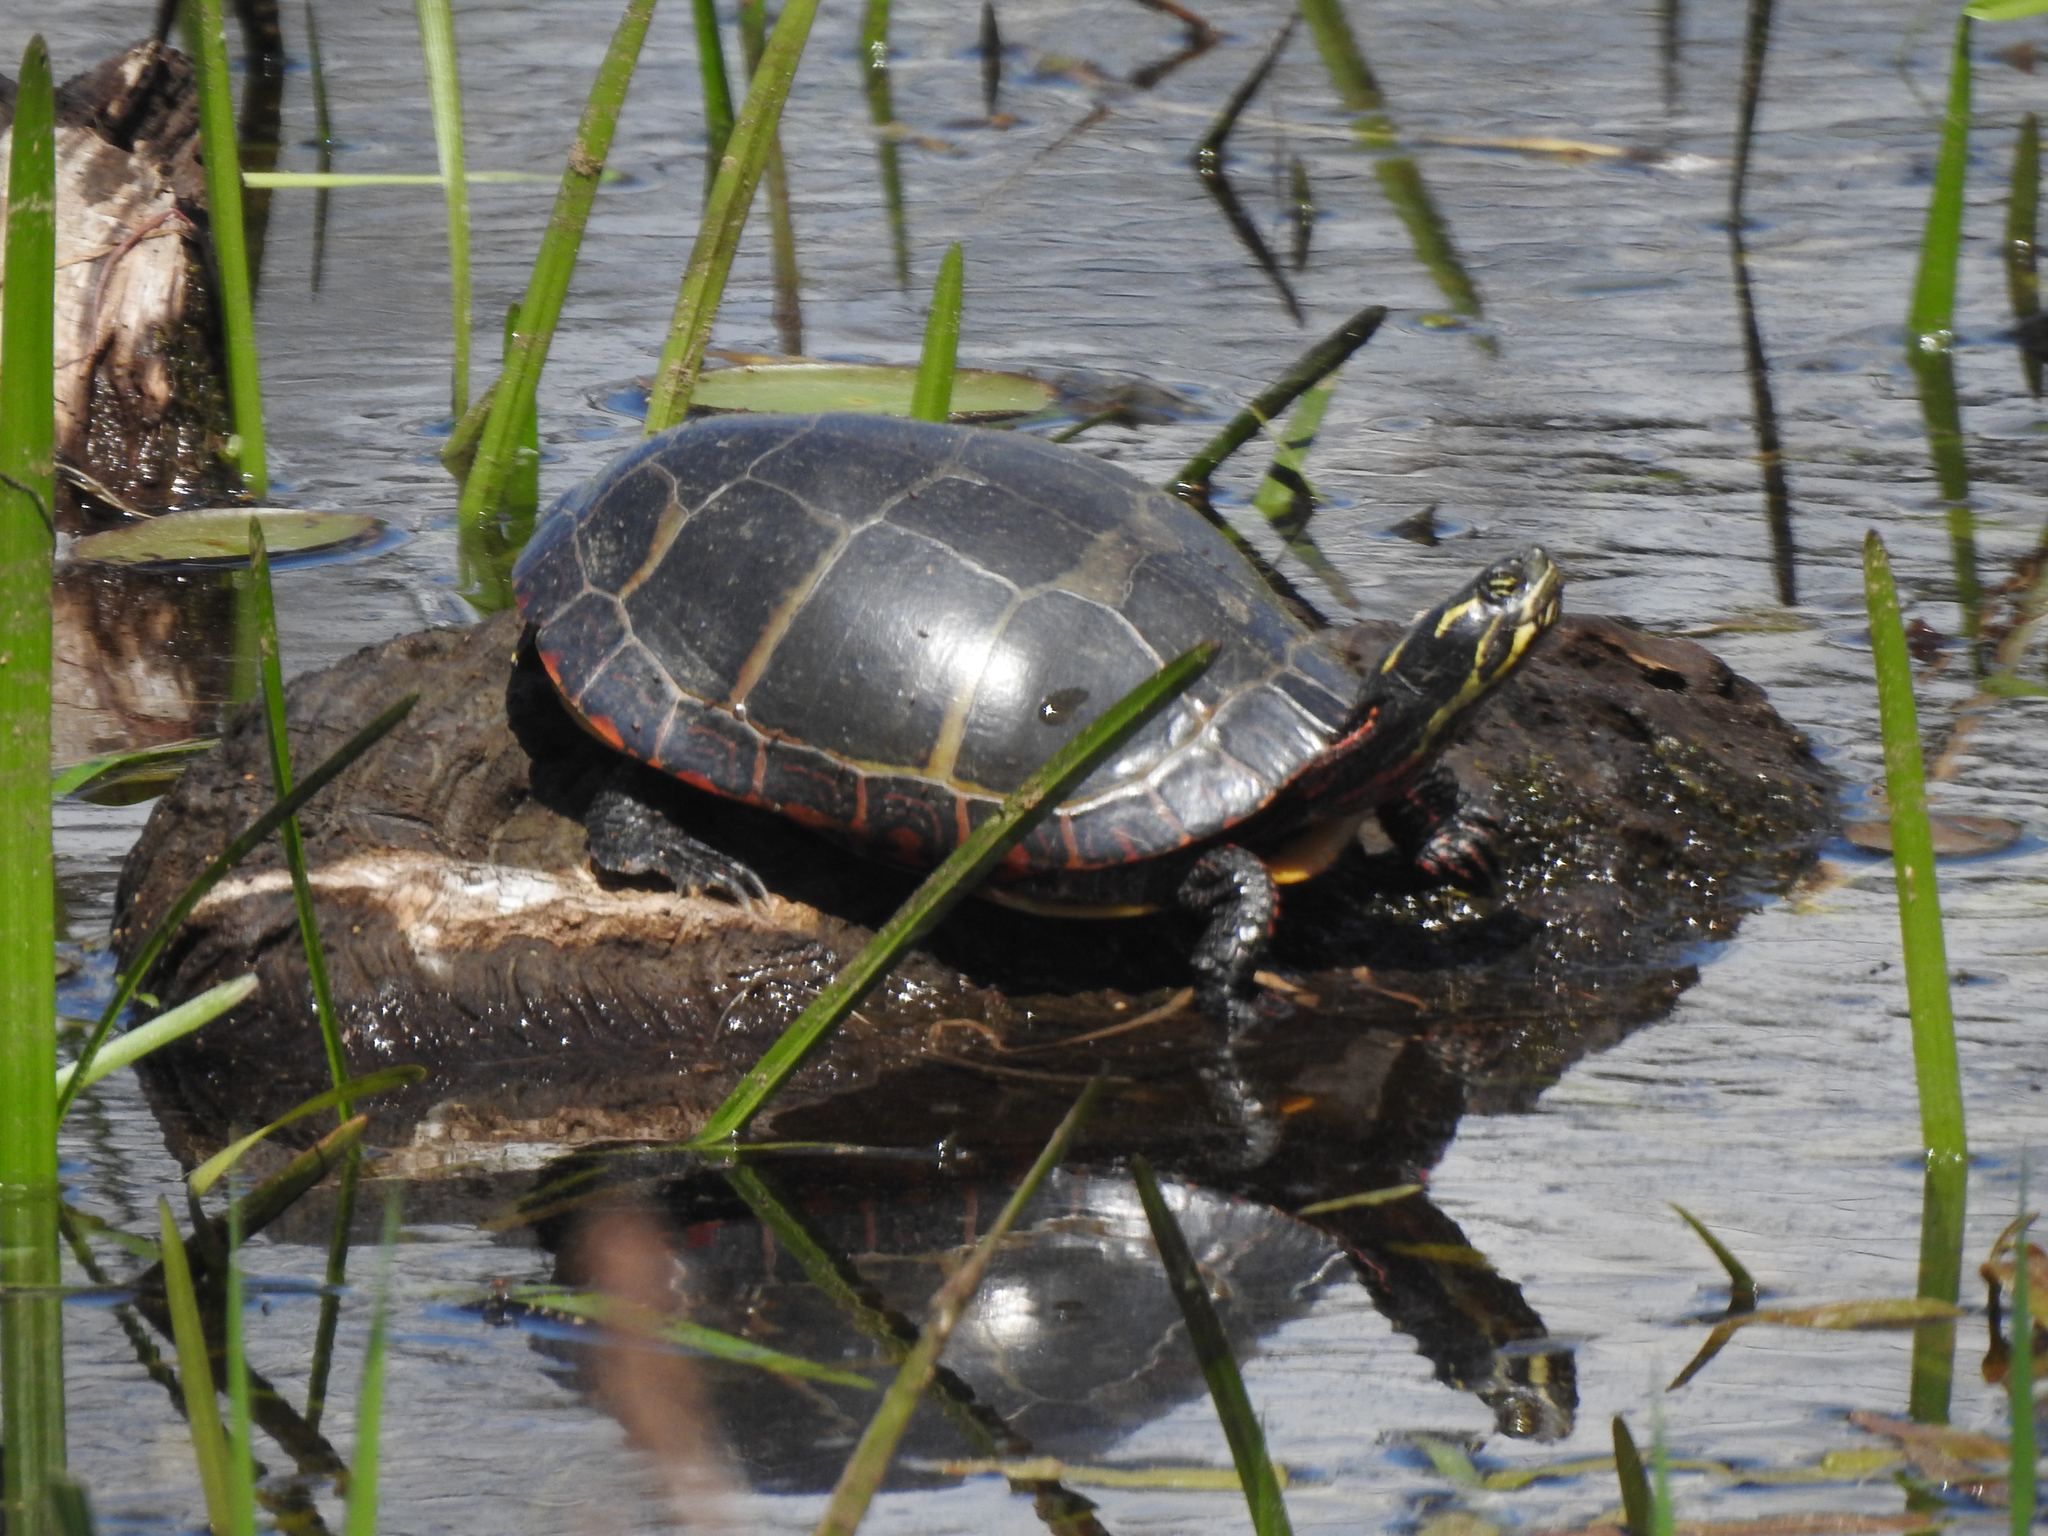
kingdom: Animalia
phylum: Chordata
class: Testudines
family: Emydidae
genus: Chrysemys
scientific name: Chrysemys picta
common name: Painted turtle
